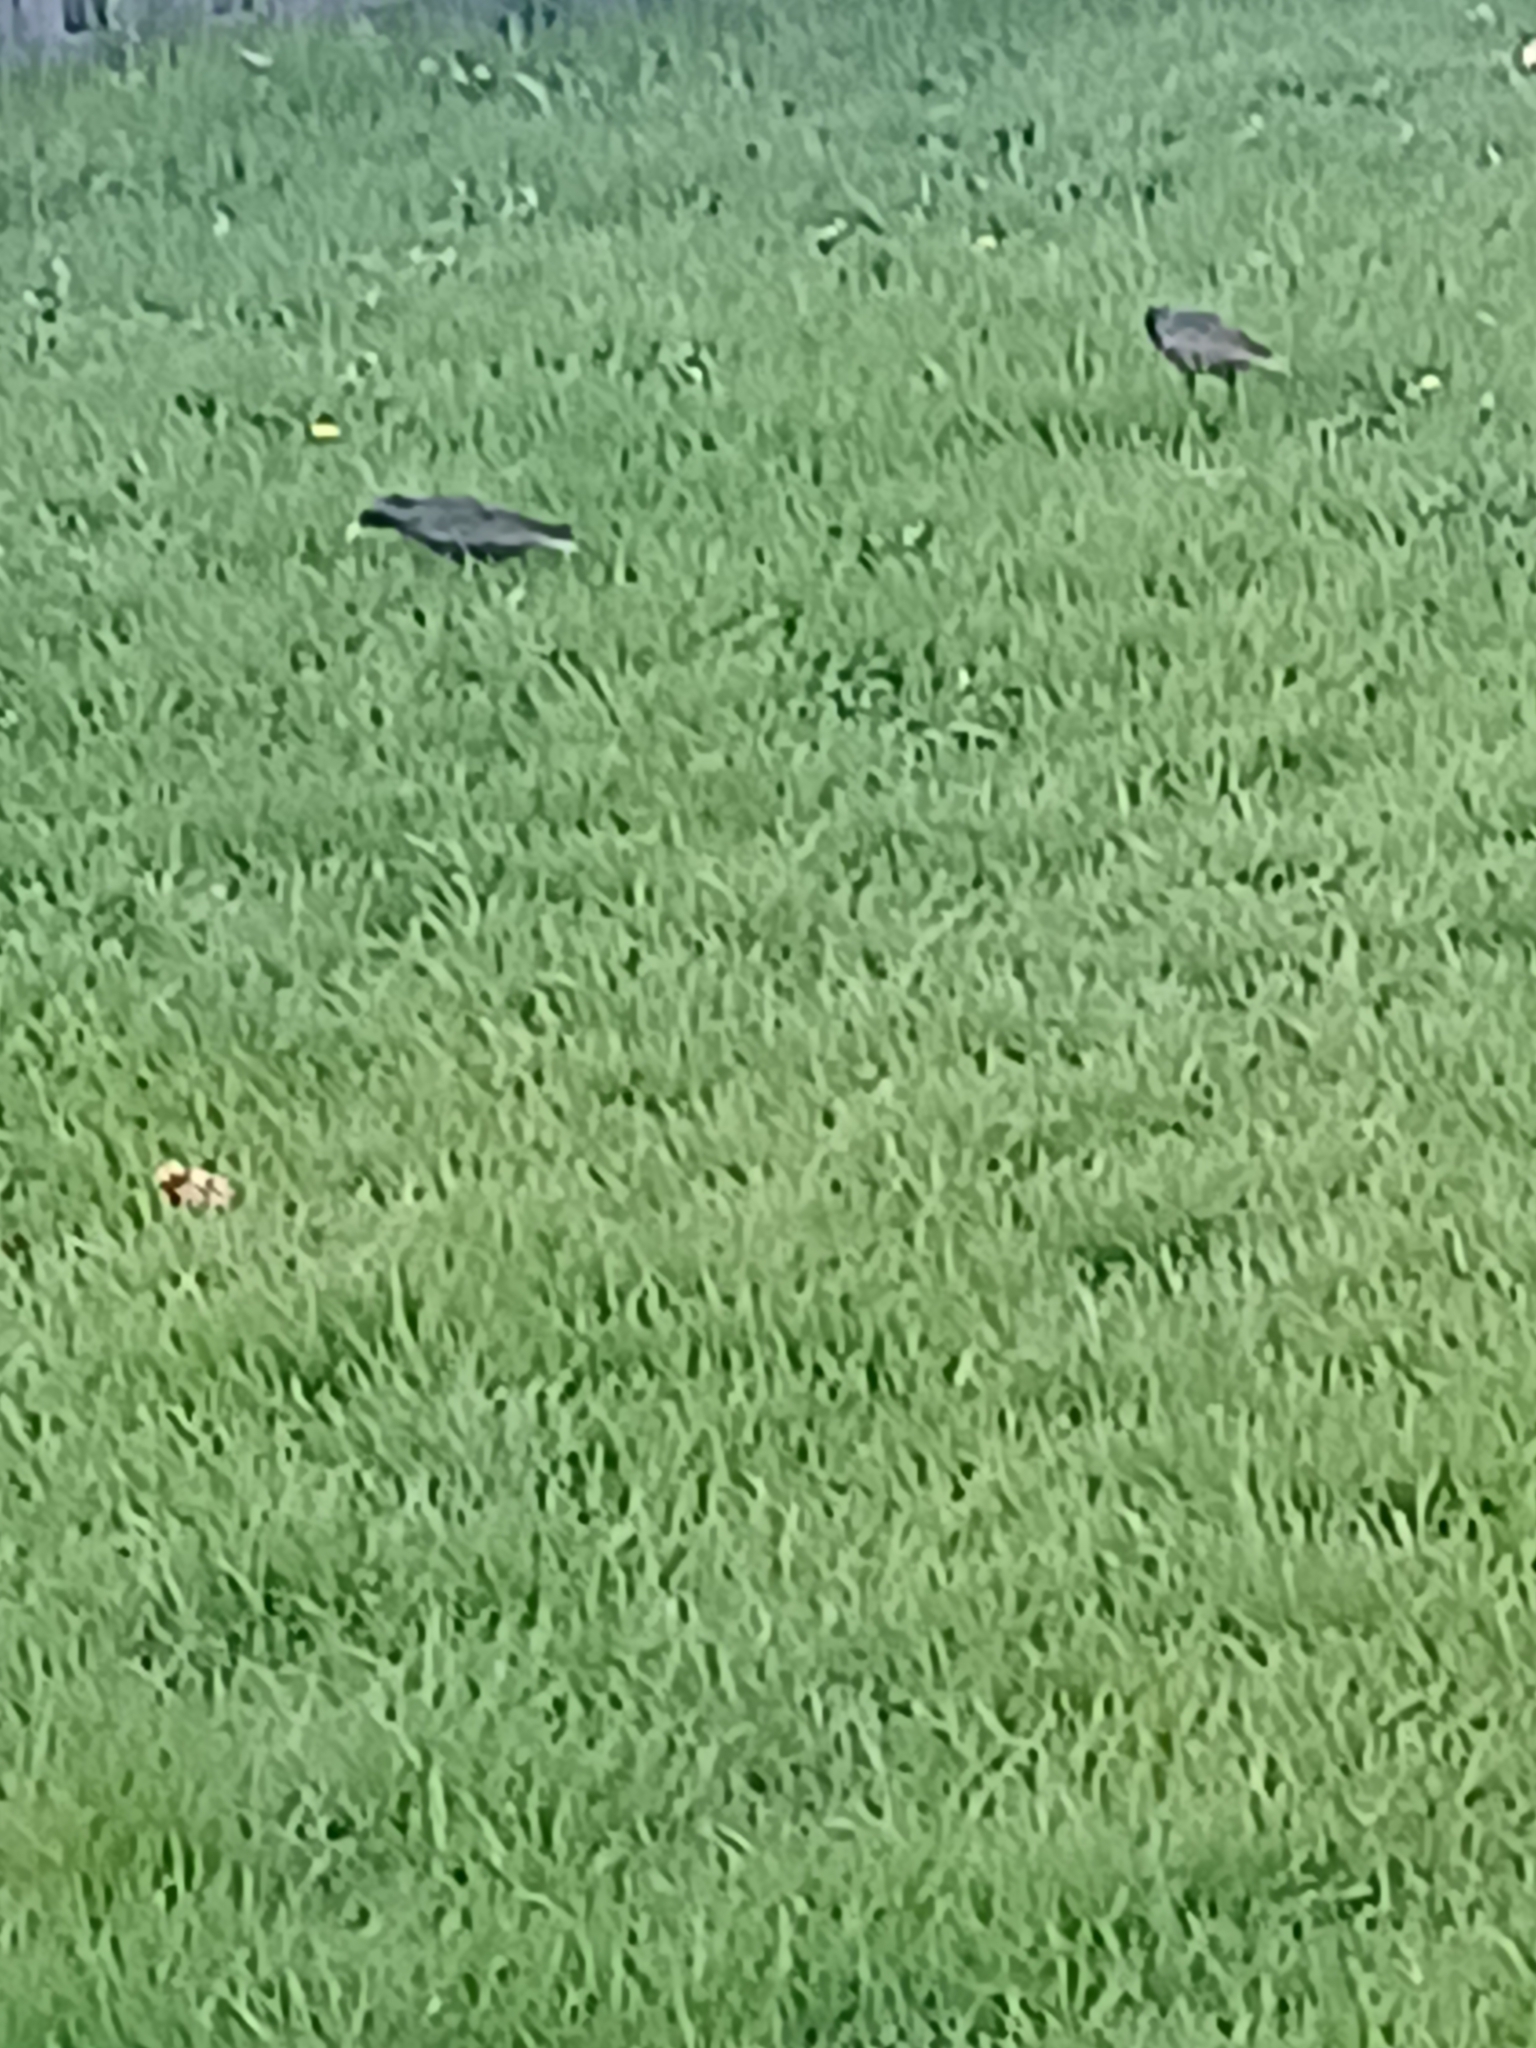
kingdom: Animalia
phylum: Chordata
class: Aves
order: Passeriformes
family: Sturnidae
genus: Sturnus
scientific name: Sturnus vulgaris
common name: Common starling
